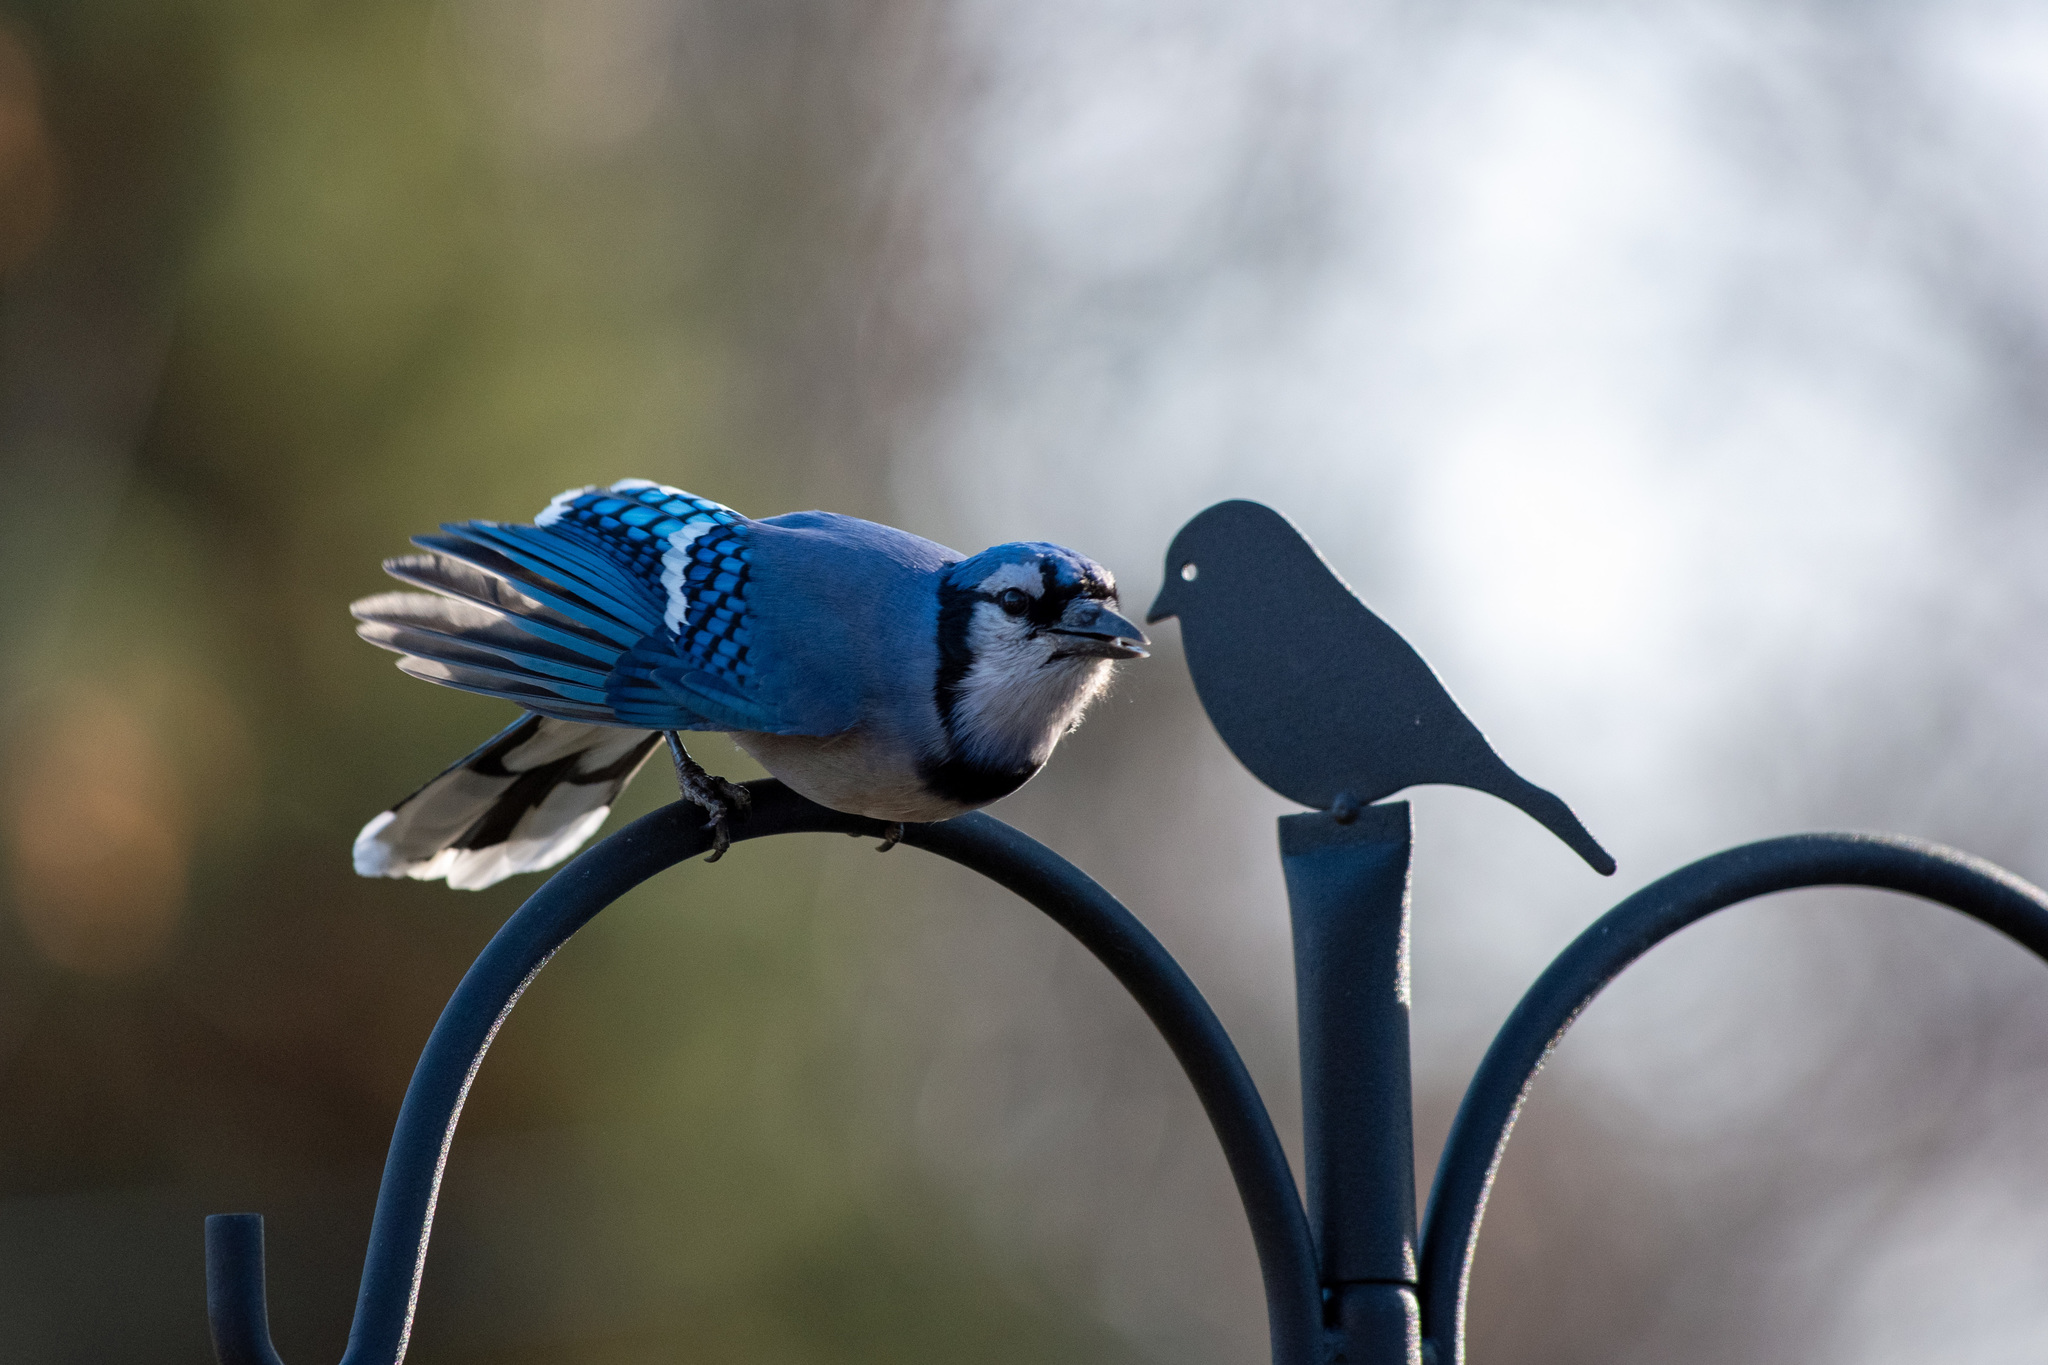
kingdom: Animalia
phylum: Chordata
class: Aves
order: Passeriformes
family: Corvidae
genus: Cyanocitta
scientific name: Cyanocitta cristata
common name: Blue jay
